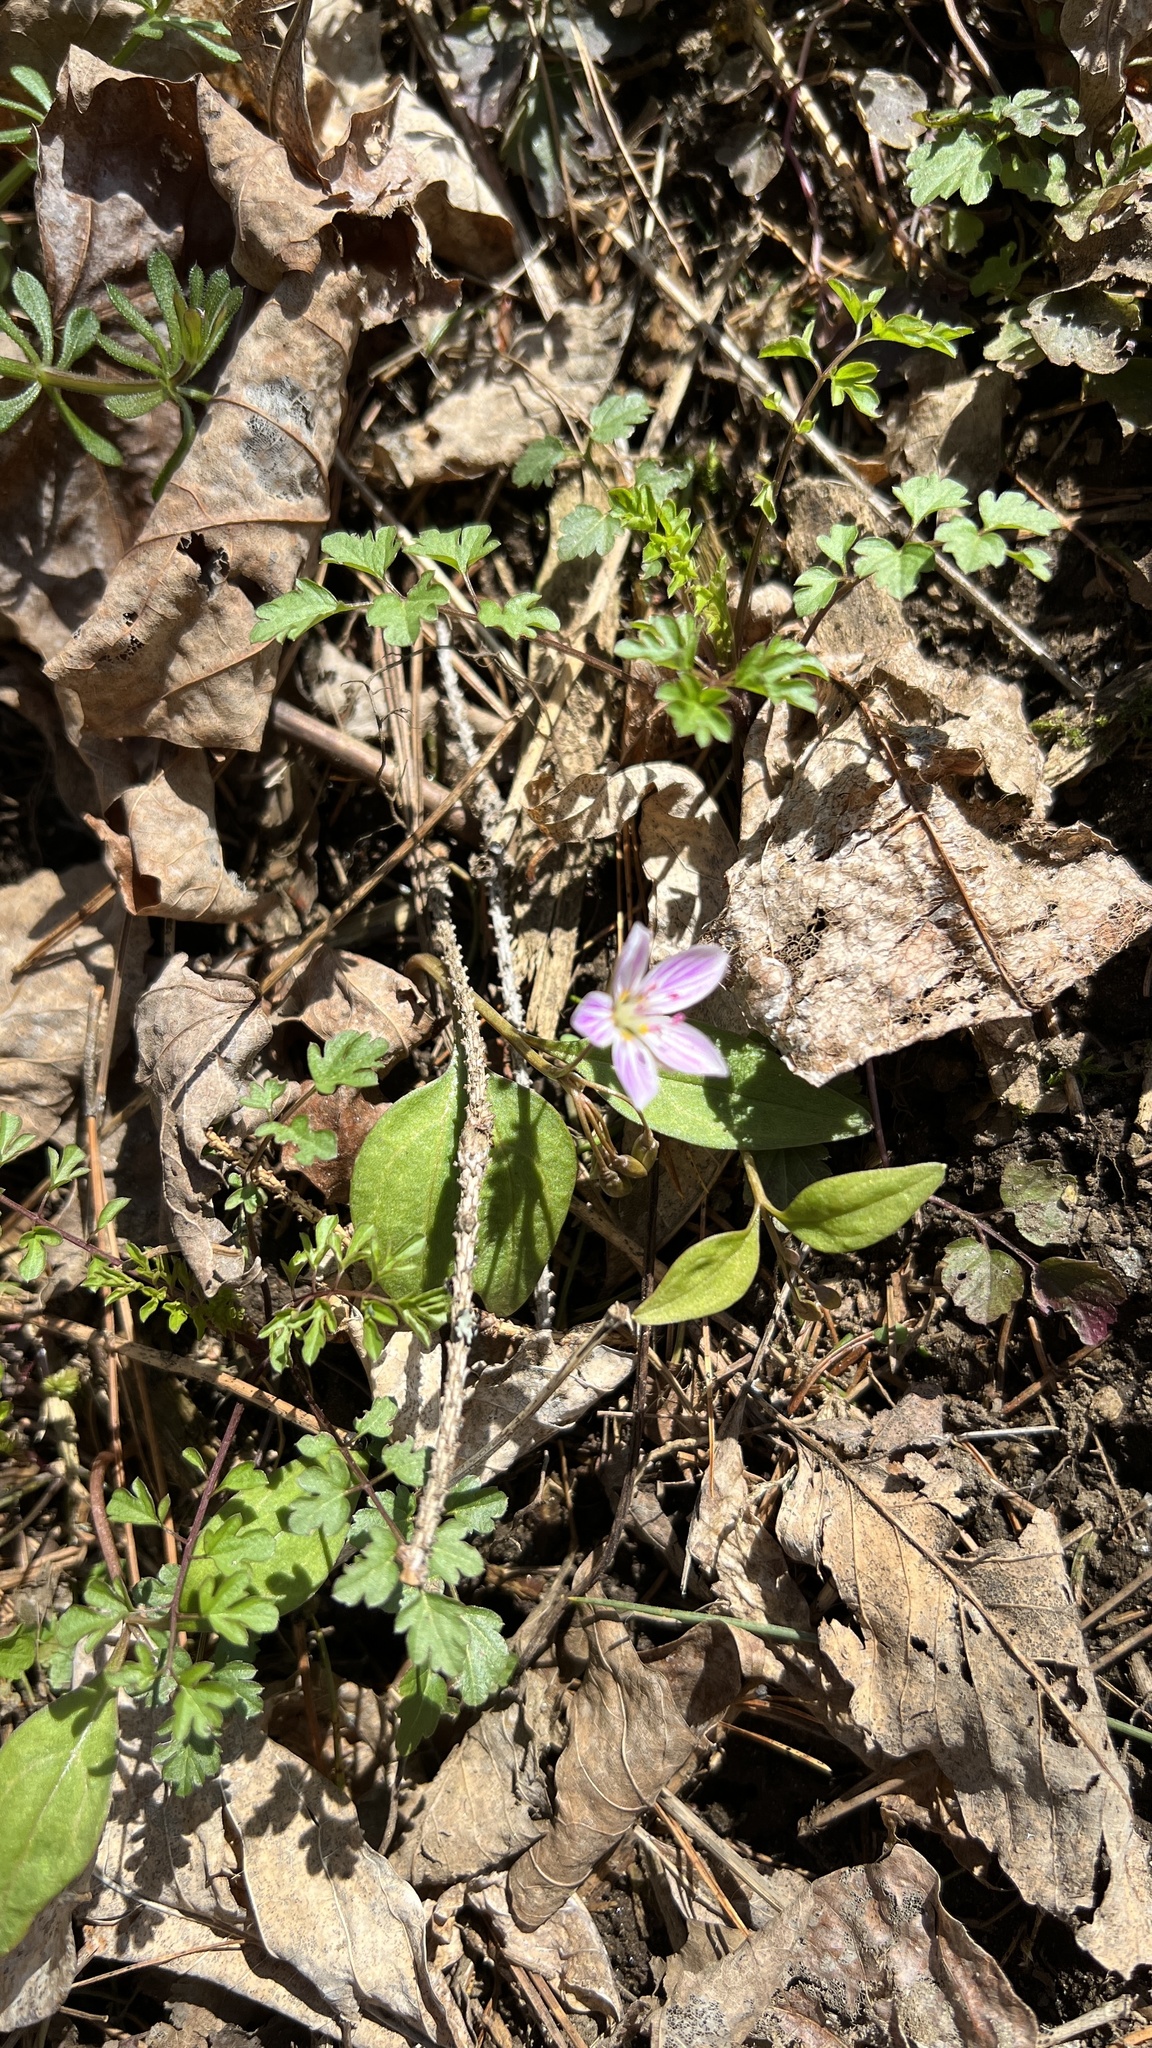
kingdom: Plantae
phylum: Tracheophyta
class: Magnoliopsida
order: Caryophyllales
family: Montiaceae
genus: Claytonia
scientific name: Claytonia caroliniana
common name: Carolina spring beauty
